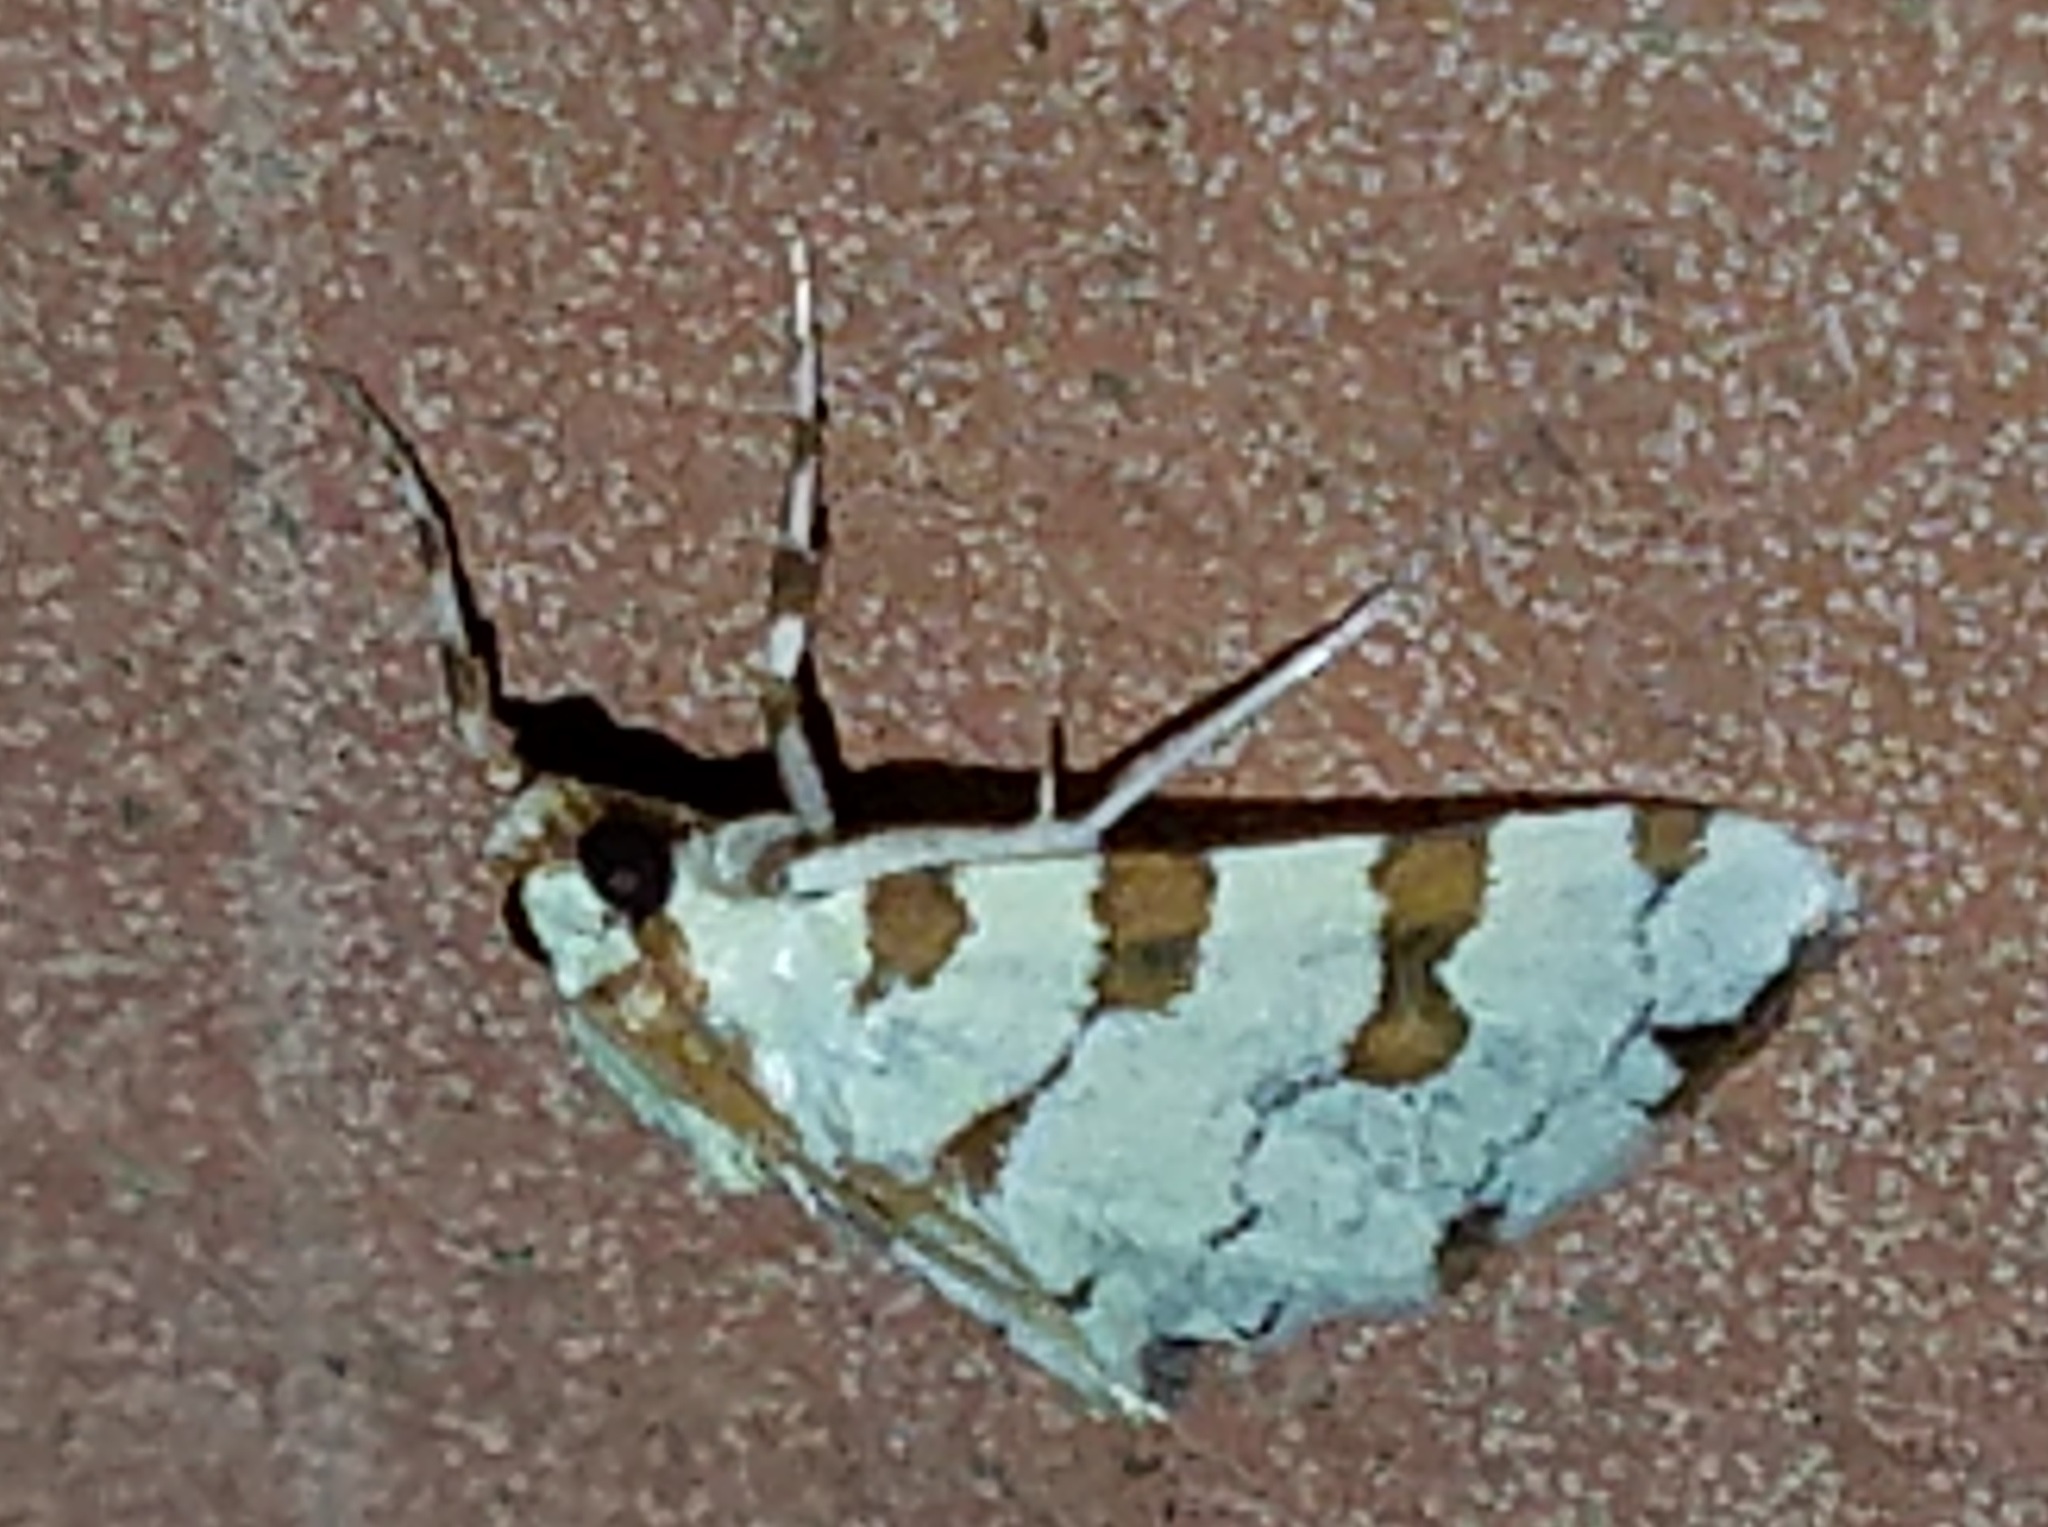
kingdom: Animalia
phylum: Arthropoda
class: Insecta
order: Lepidoptera
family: Crambidae
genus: Conchylodes
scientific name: Conchylodes
